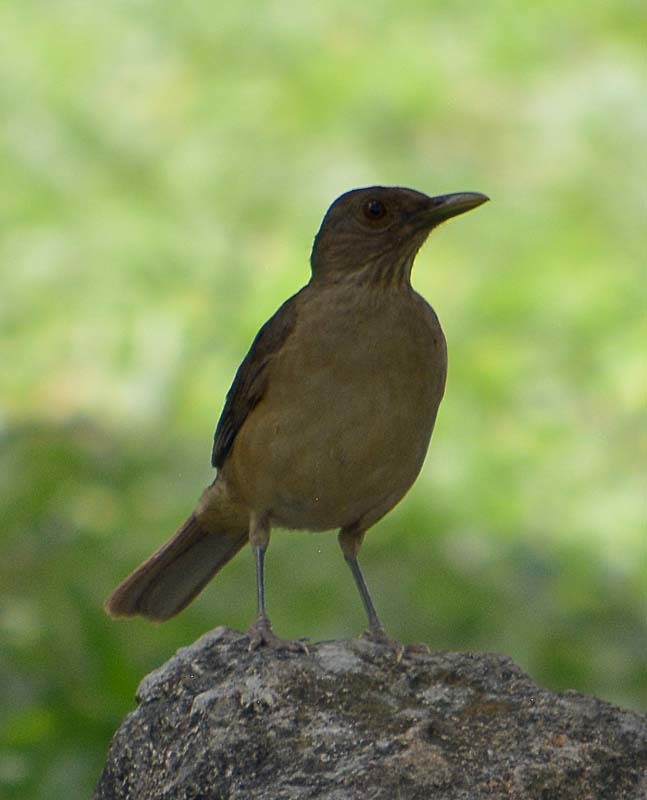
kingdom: Animalia
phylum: Chordata
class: Aves
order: Passeriformes
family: Turdidae
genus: Turdus
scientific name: Turdus grayi
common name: Clay-colored thrush
